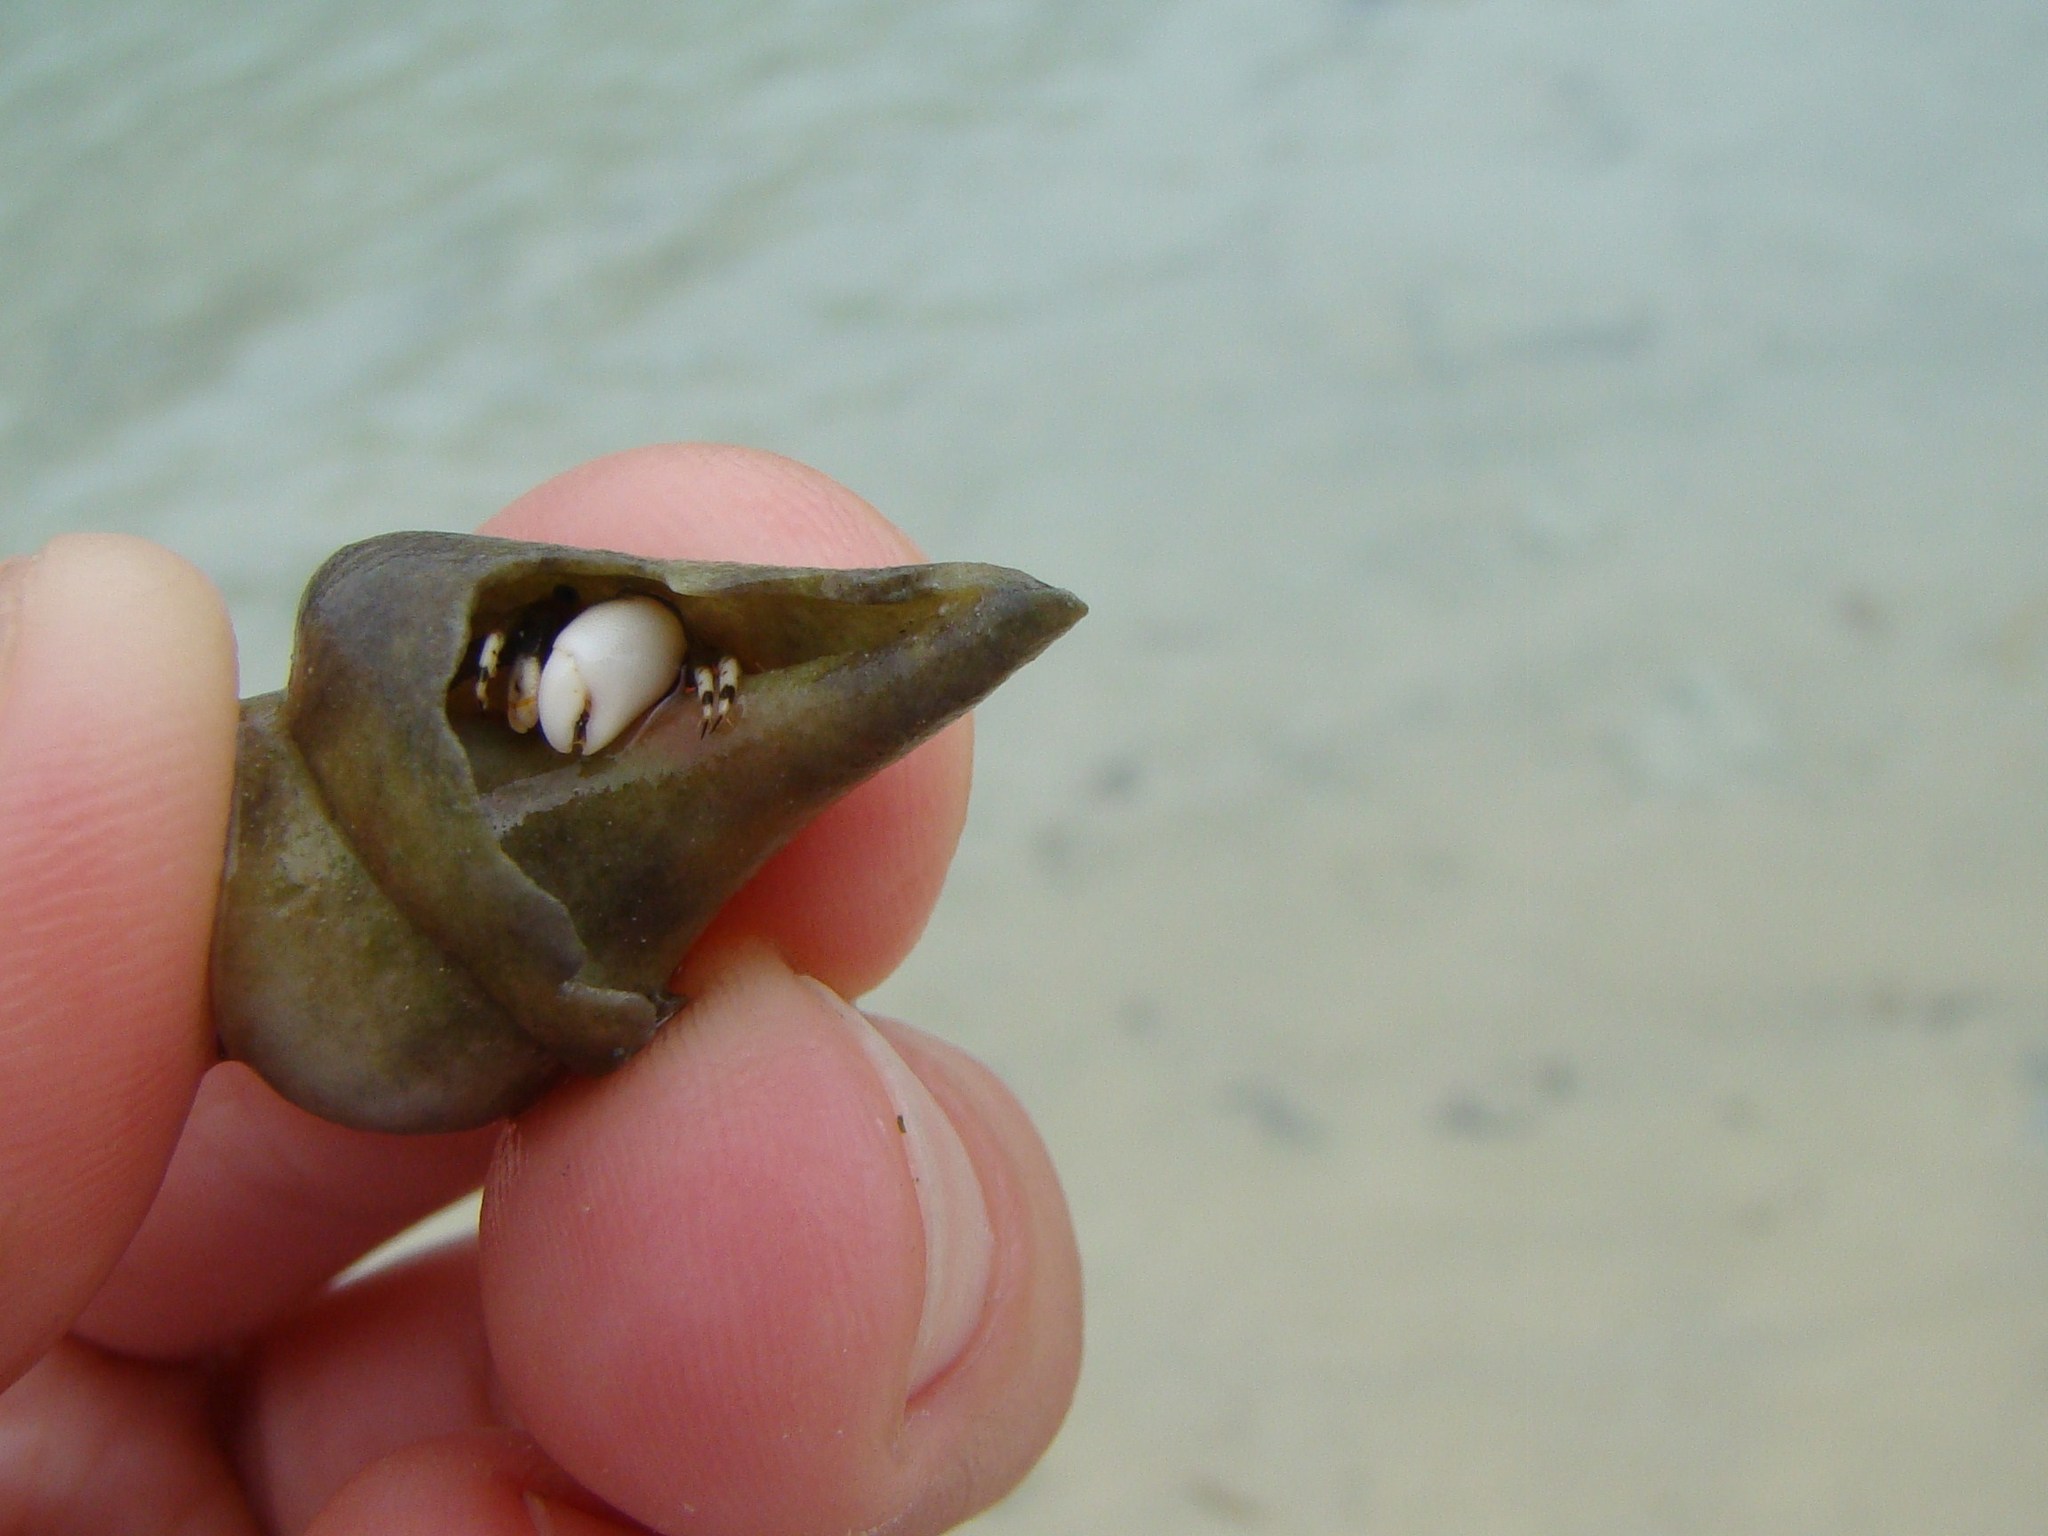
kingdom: Animalia
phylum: Arthropoda
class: Malacostraca
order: Decapoda
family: Diogenidae
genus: Calcinus
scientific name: Calcinus laevimanus
